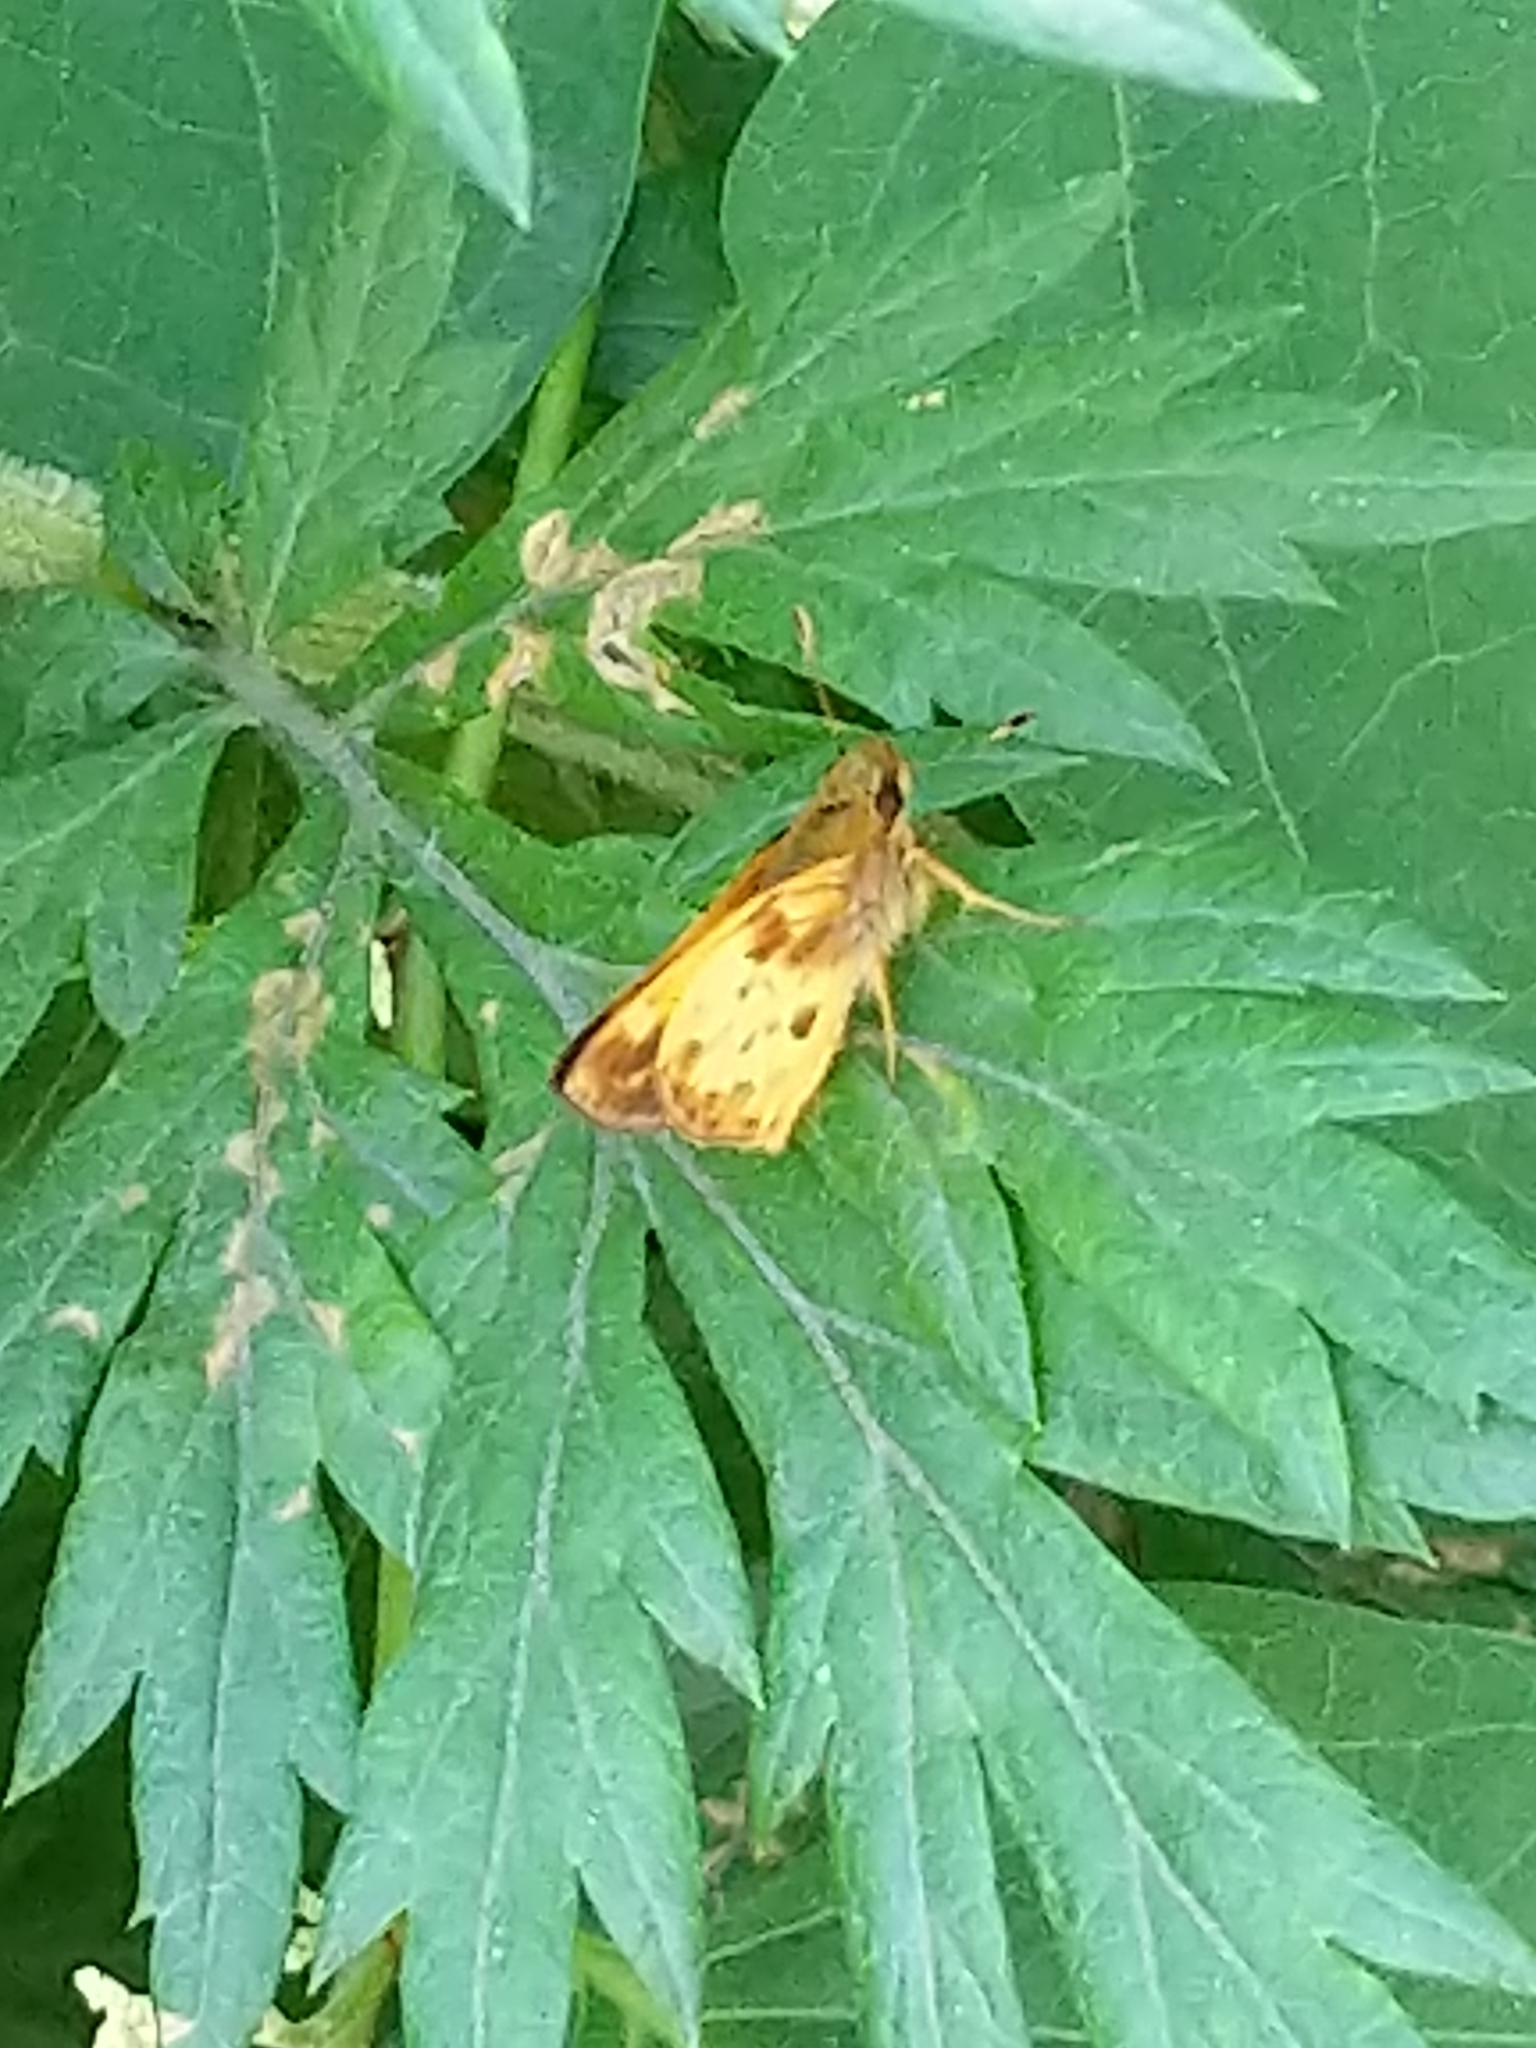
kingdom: Animalia
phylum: Arthropoda
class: Insecta
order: Lepidoptera
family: Hesperiidae
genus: Lon
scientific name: Lon zabulon
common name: Zabulon skipper
